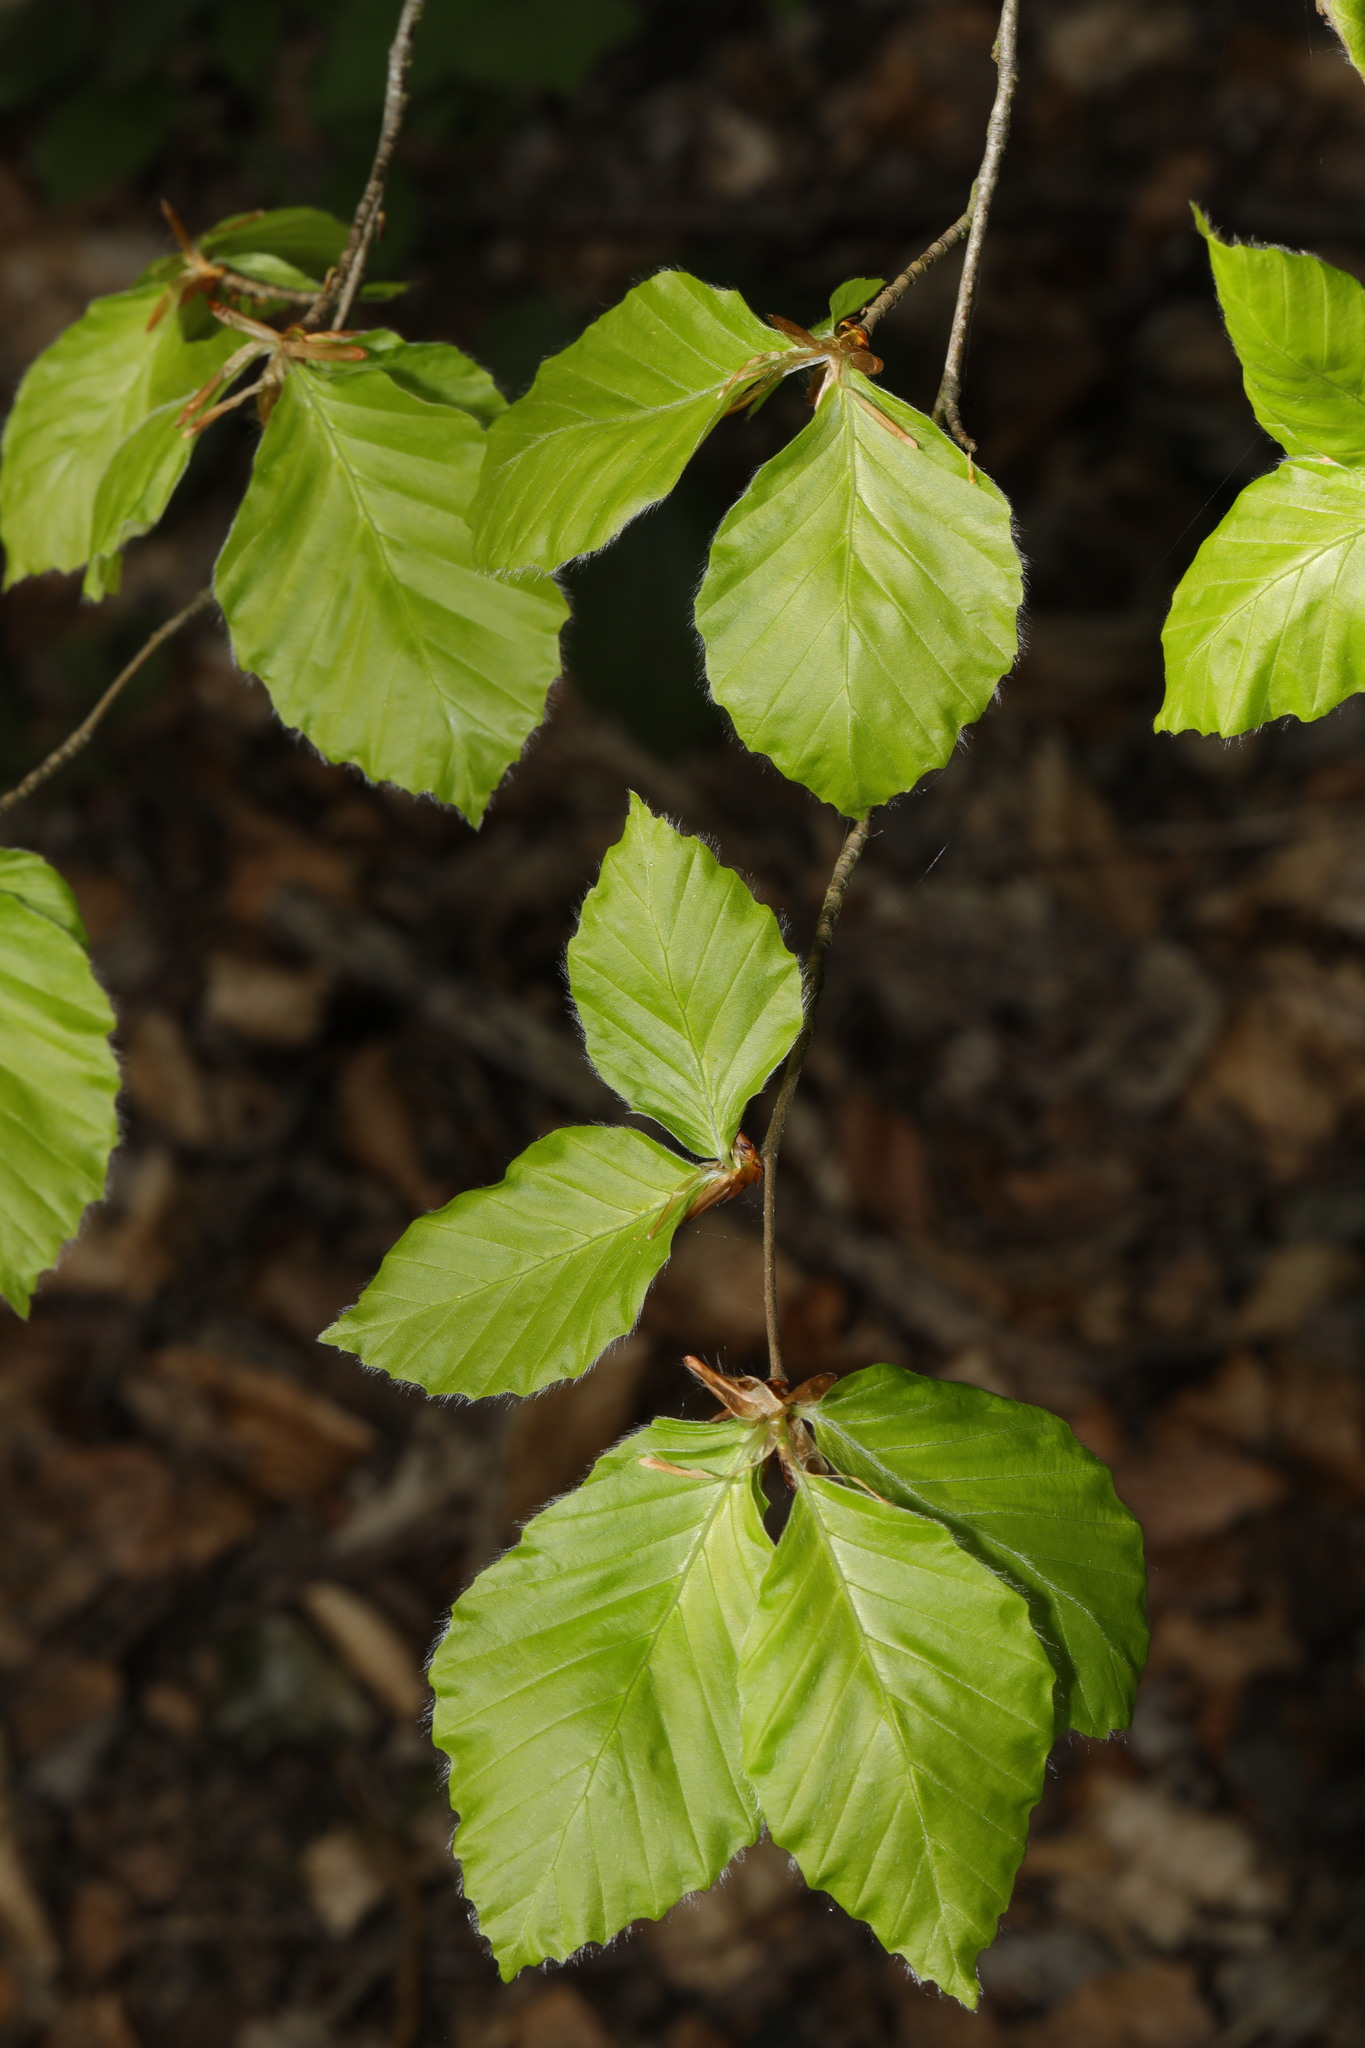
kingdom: Plantae
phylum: Tracheophyta
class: Magnoliopsida
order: Fagales
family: Fagaceae
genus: Fagus
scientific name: Fagus sylvatica
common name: Beech
